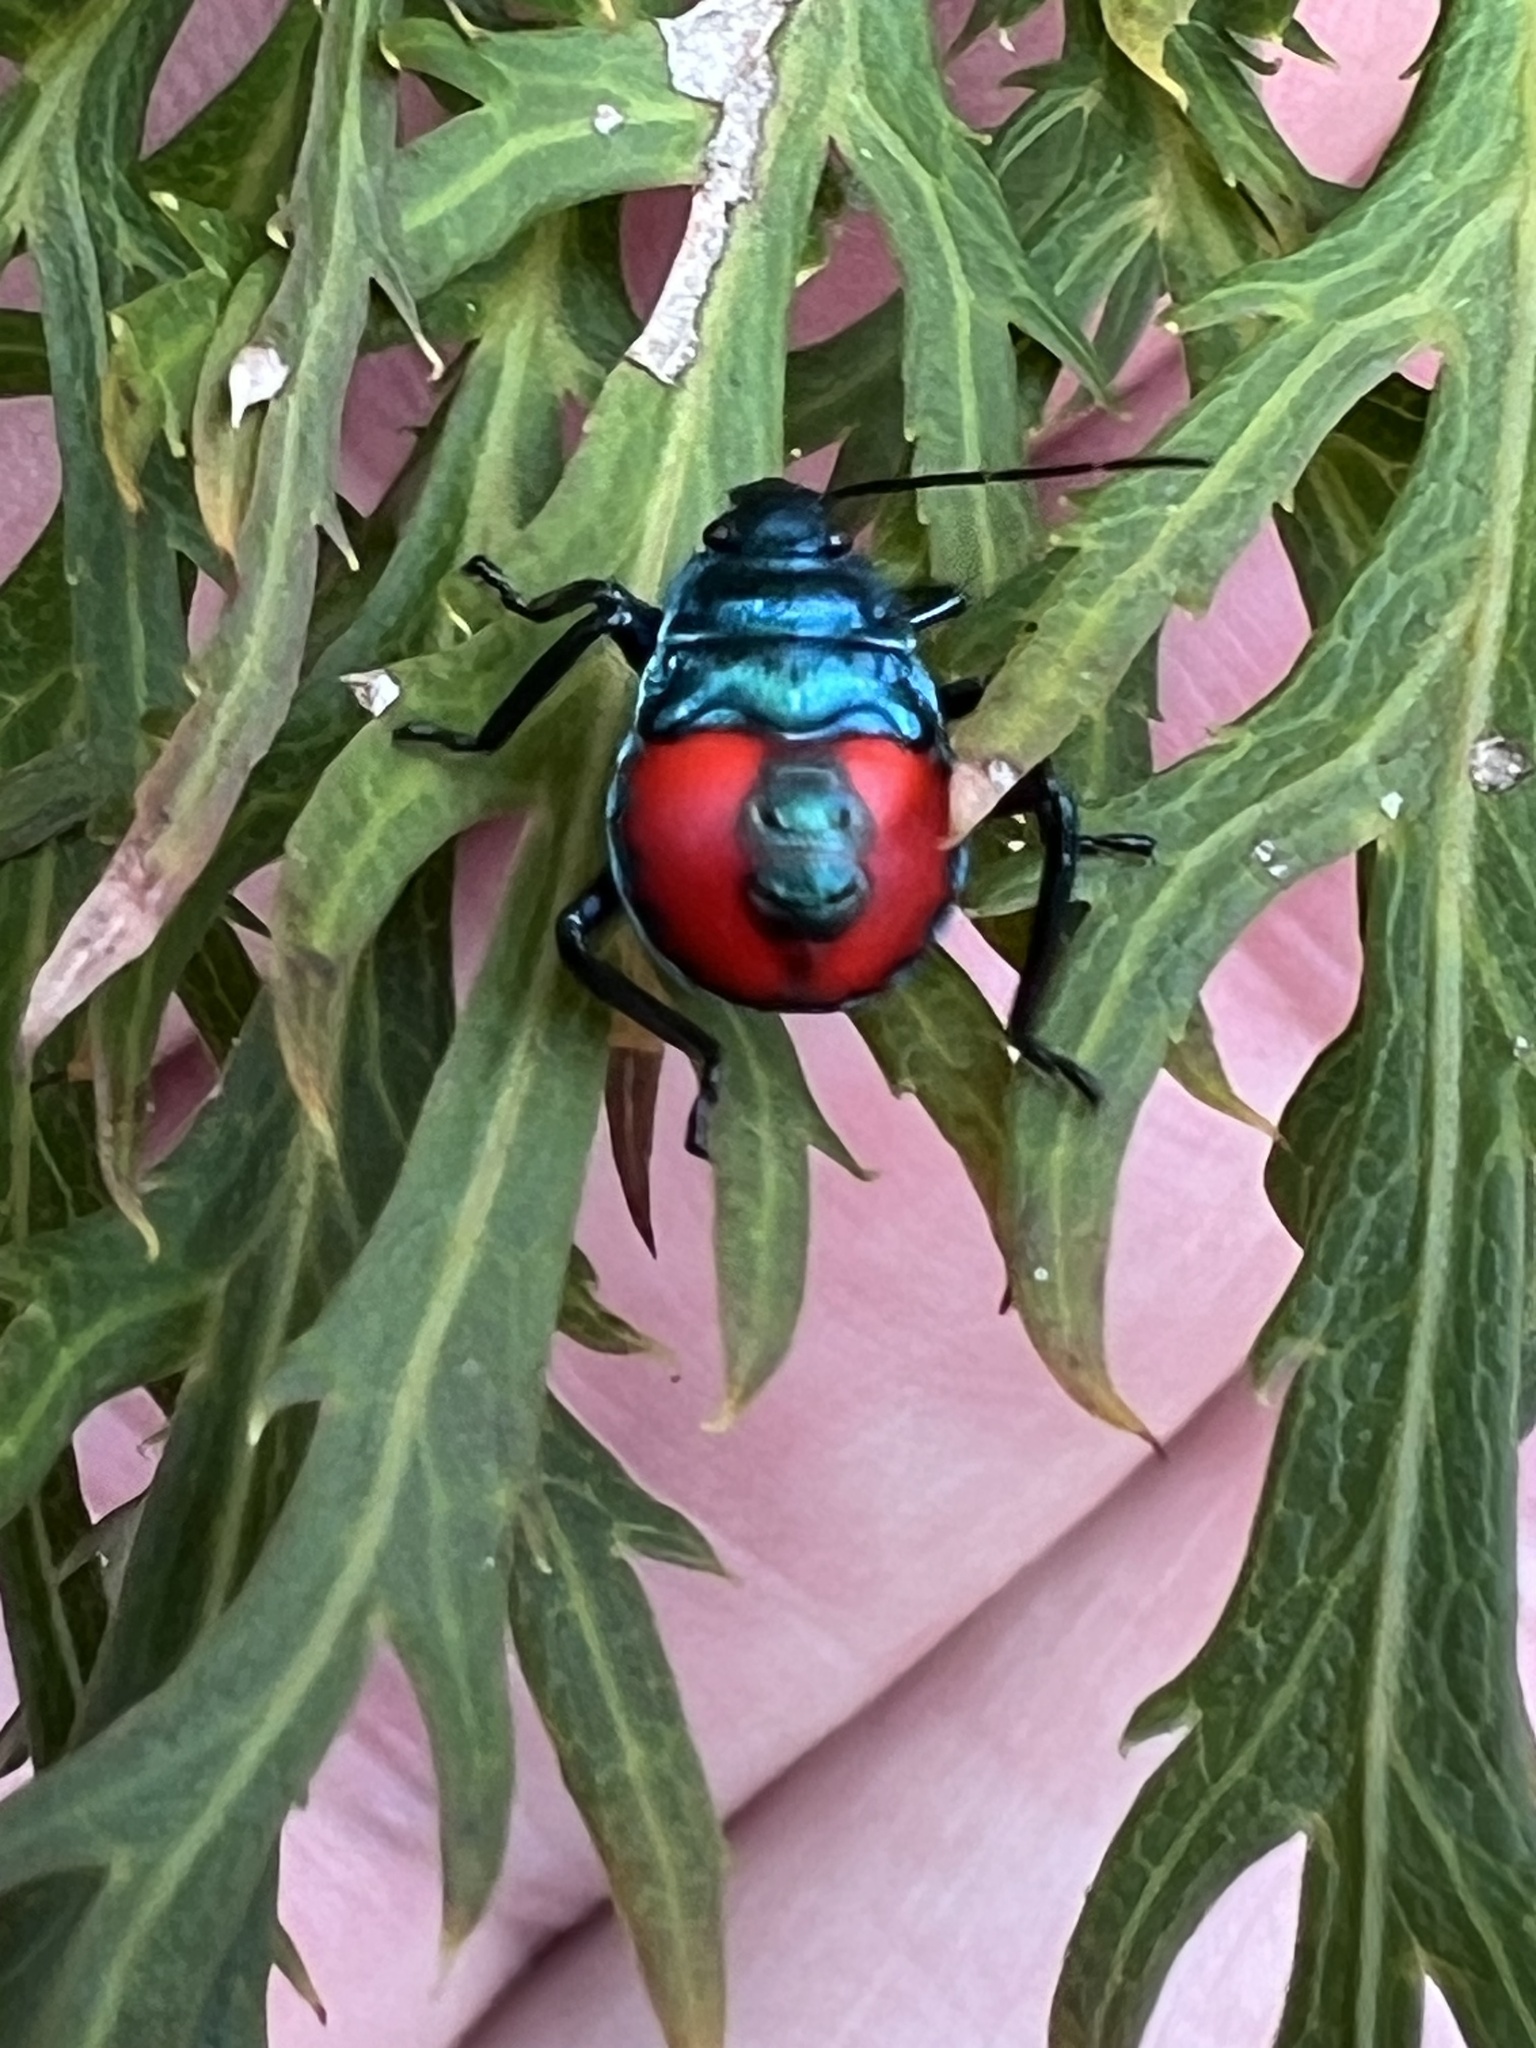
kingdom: Animalia
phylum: Arthropoda
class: Insecta
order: Hemiptera
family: Pentatomidae
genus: Euthyrhynchus
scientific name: Euthyrhynchus floridanus
